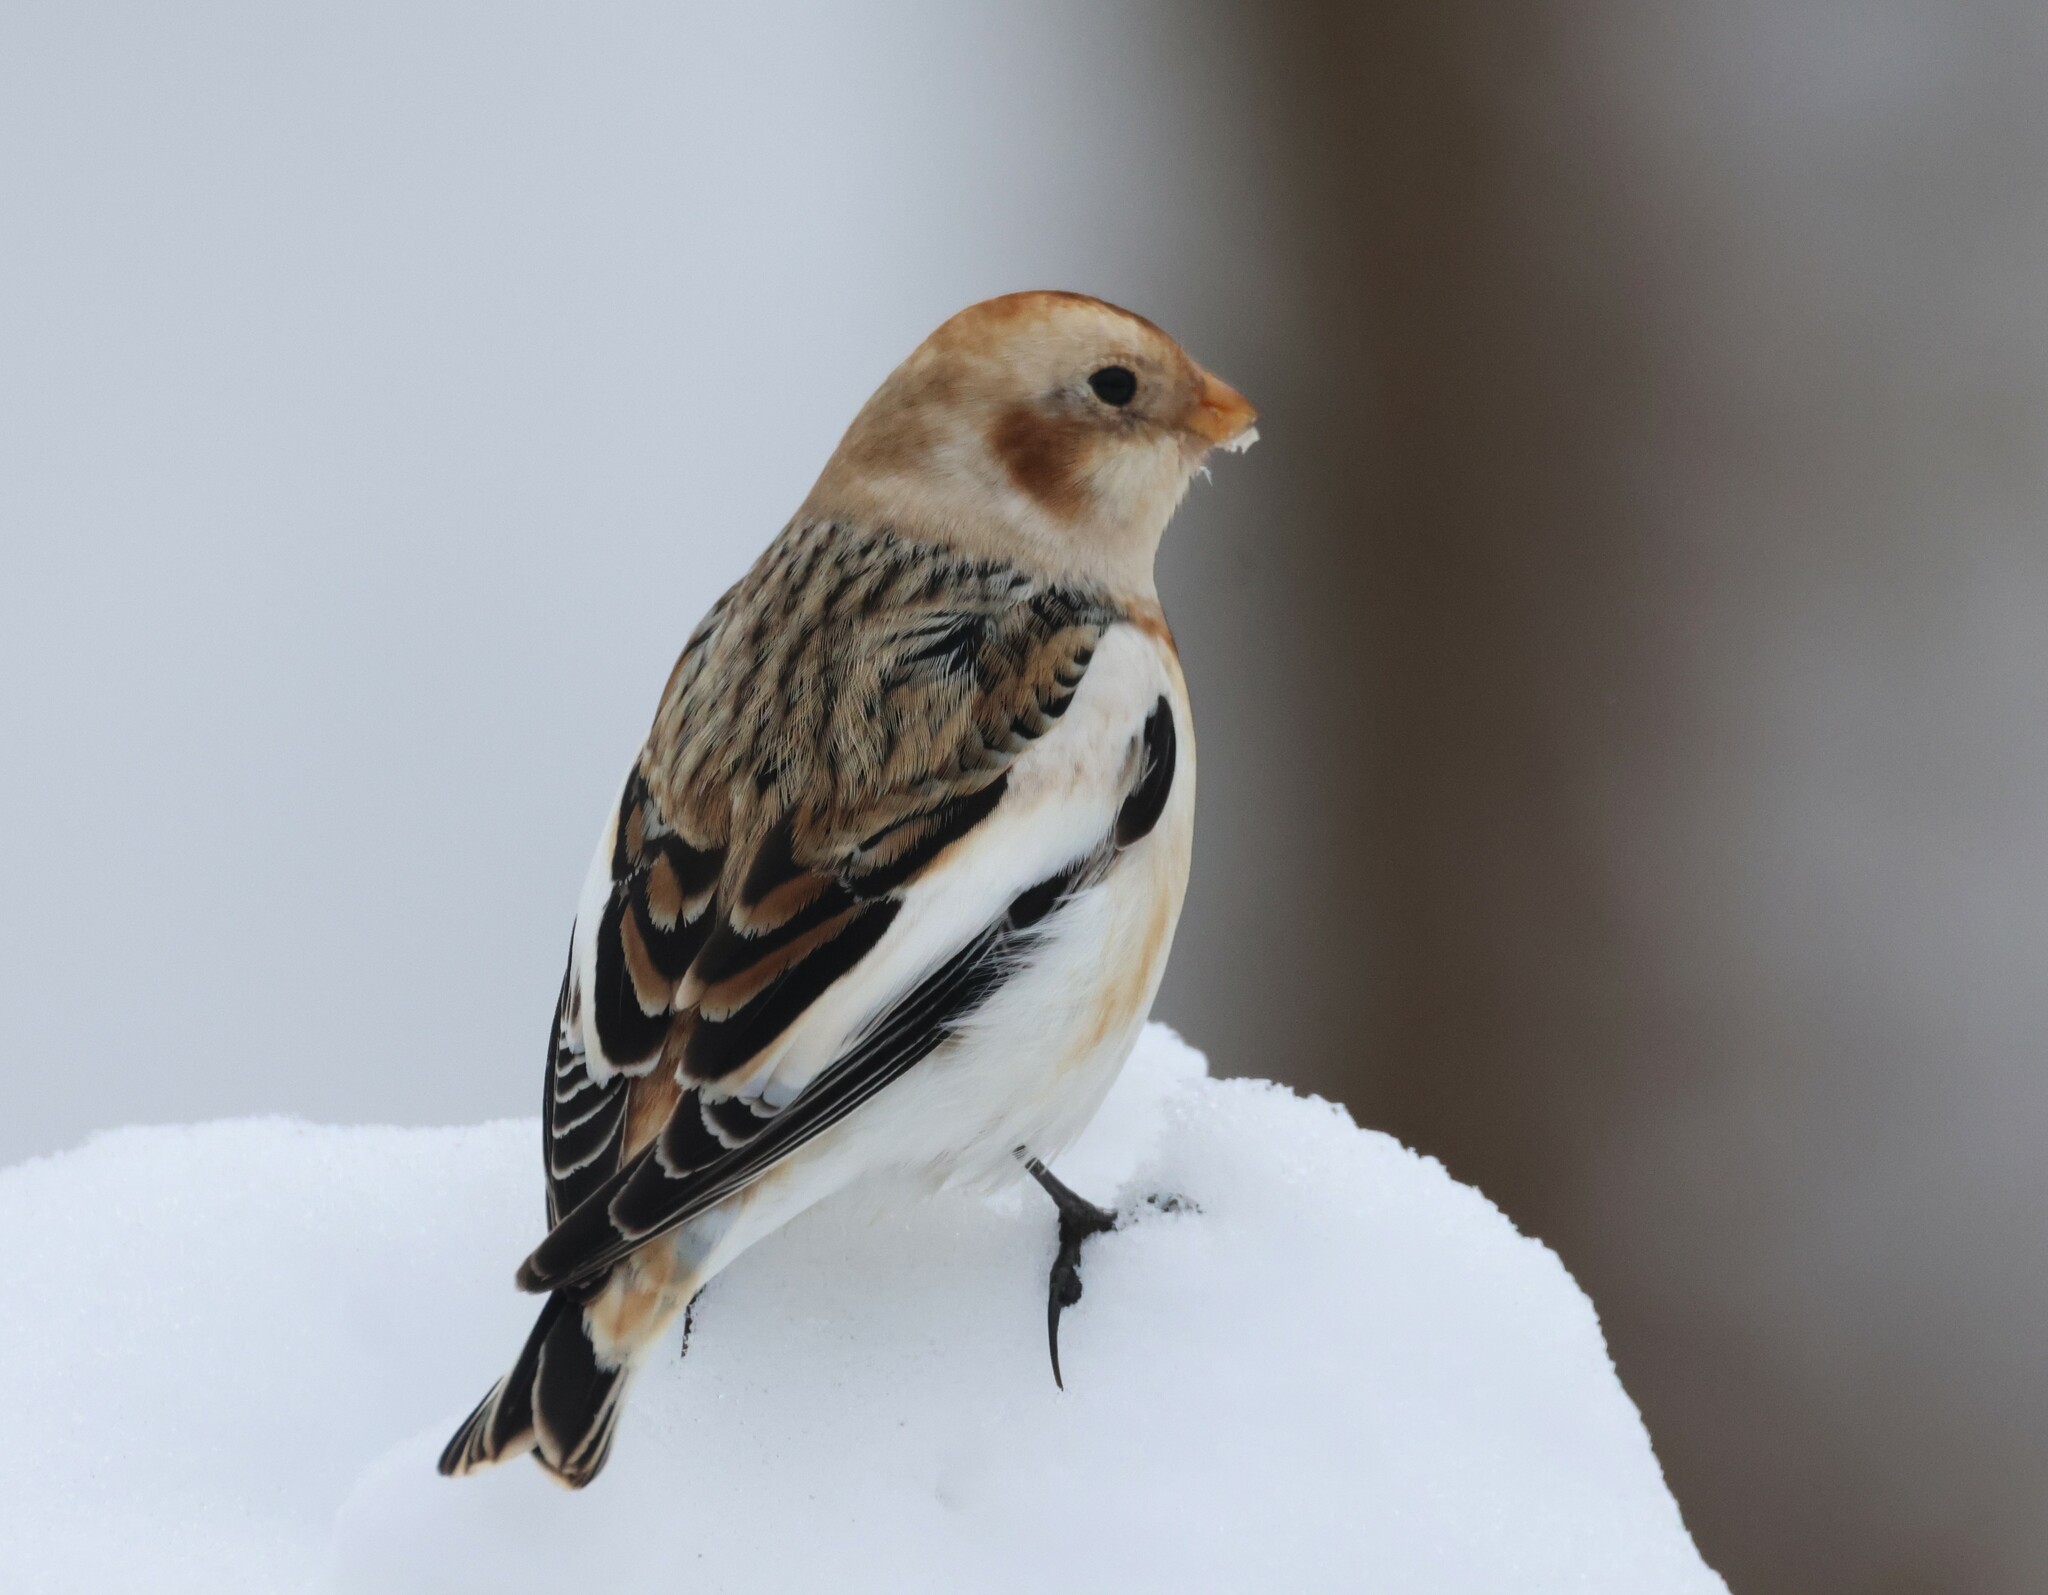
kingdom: Animalia
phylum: Chordata
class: Aves
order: Passeriformes
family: Calcariidae
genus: Plectrophenax
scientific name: Plectrophenax nivalis
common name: Snow bunting
